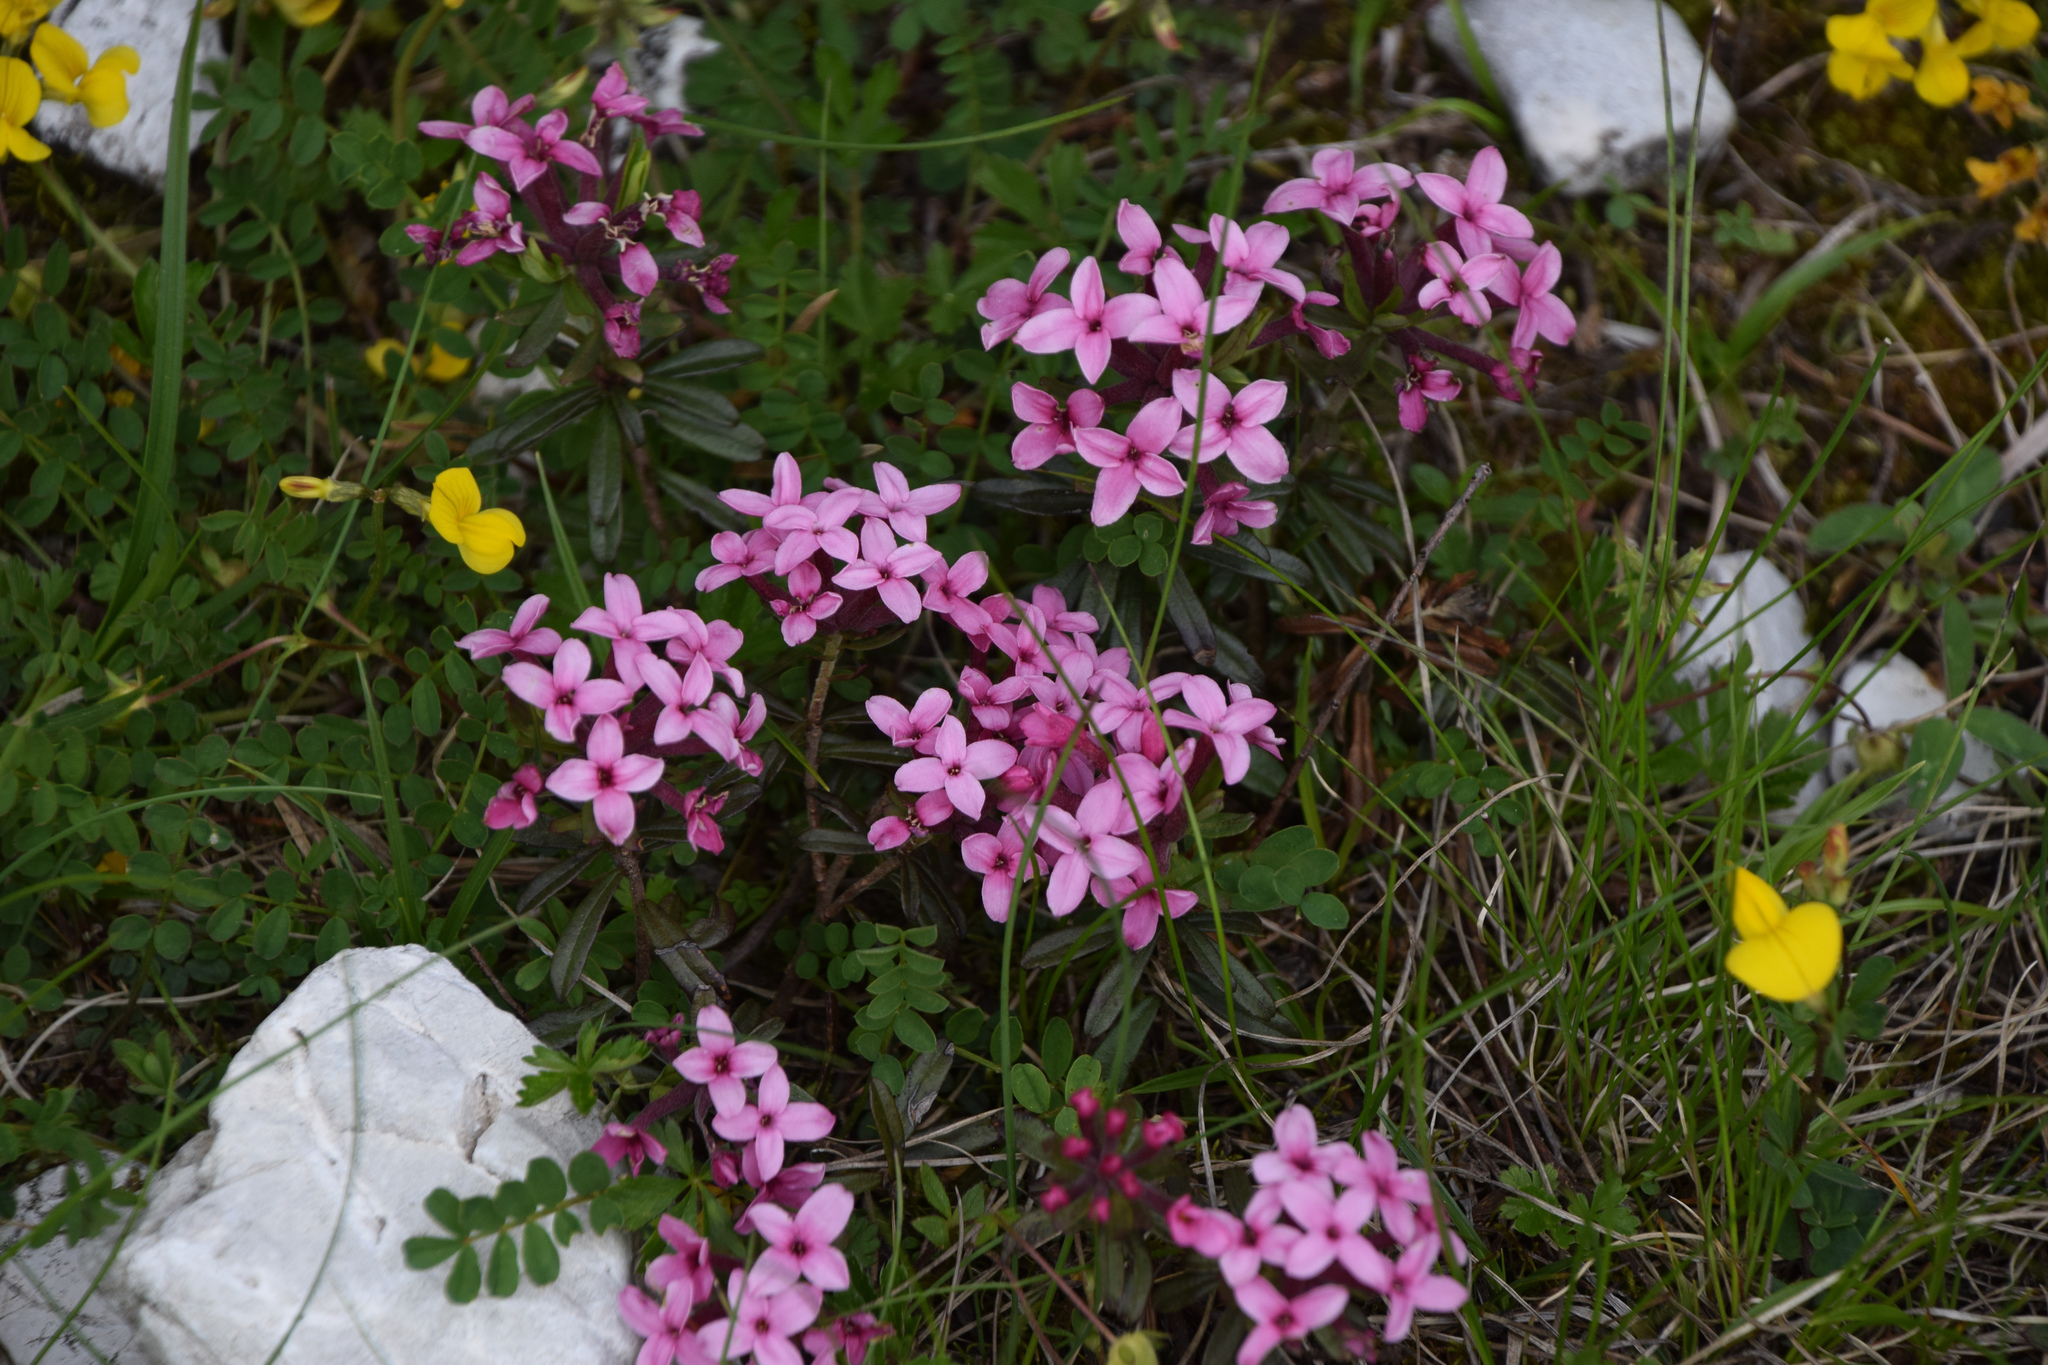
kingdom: Plantae
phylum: Tracheophyta
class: Magnoliopsida
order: Malvales
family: Thymelaeaceae
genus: Daphne
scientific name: Daphne cneorum
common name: Garland-flower
